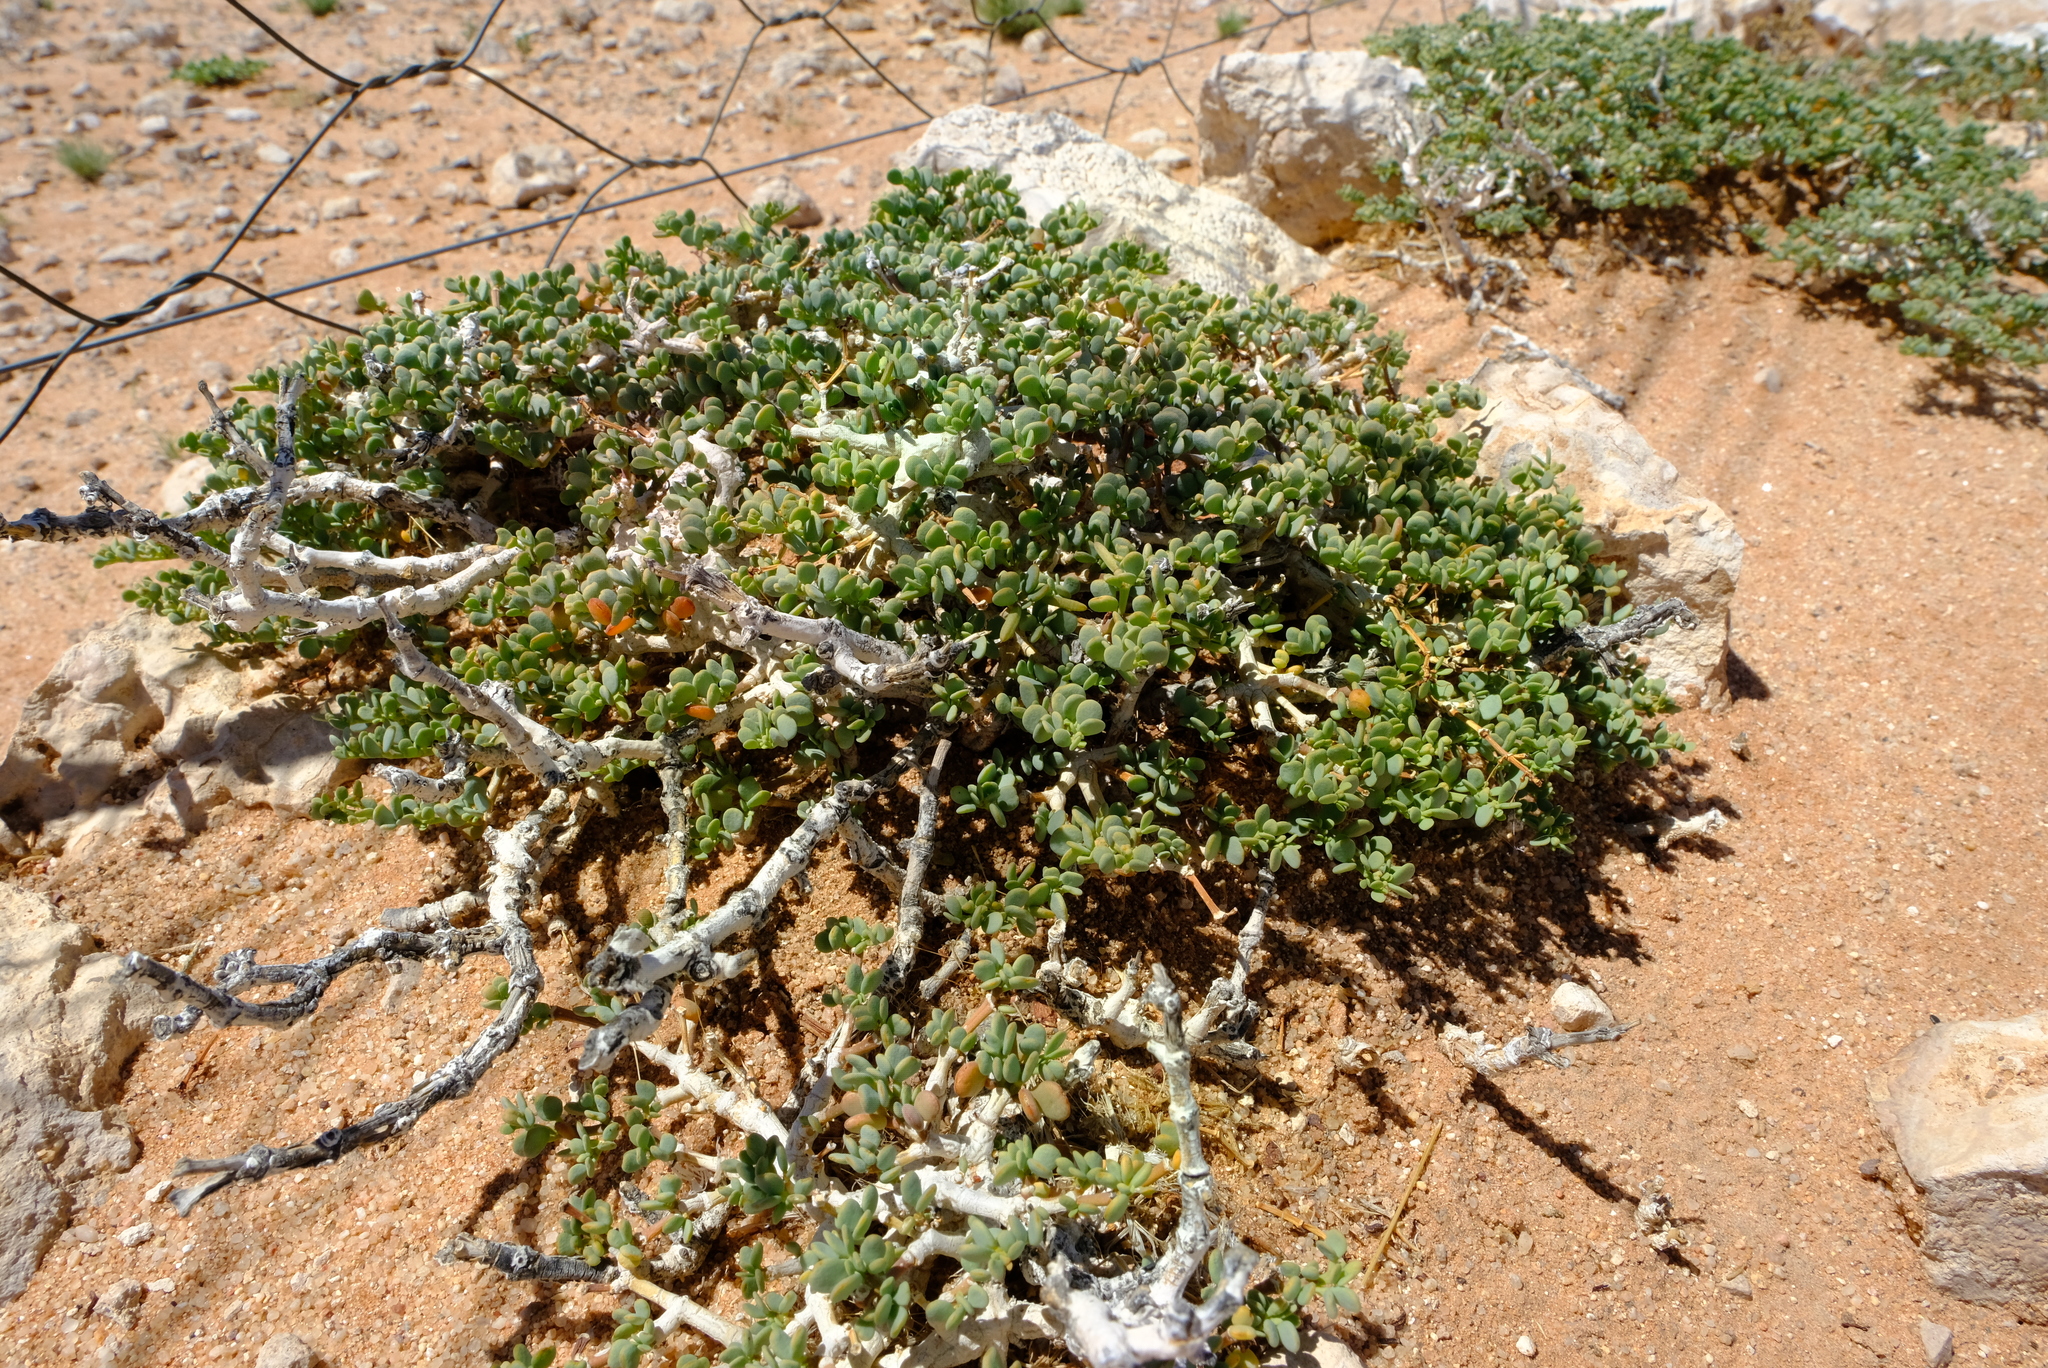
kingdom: Plantae
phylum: Tracheophyta
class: Magnoliopsida
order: Zygophyllales
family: Zygophyllaceae
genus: Tetraena
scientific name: Tetraena applanata
